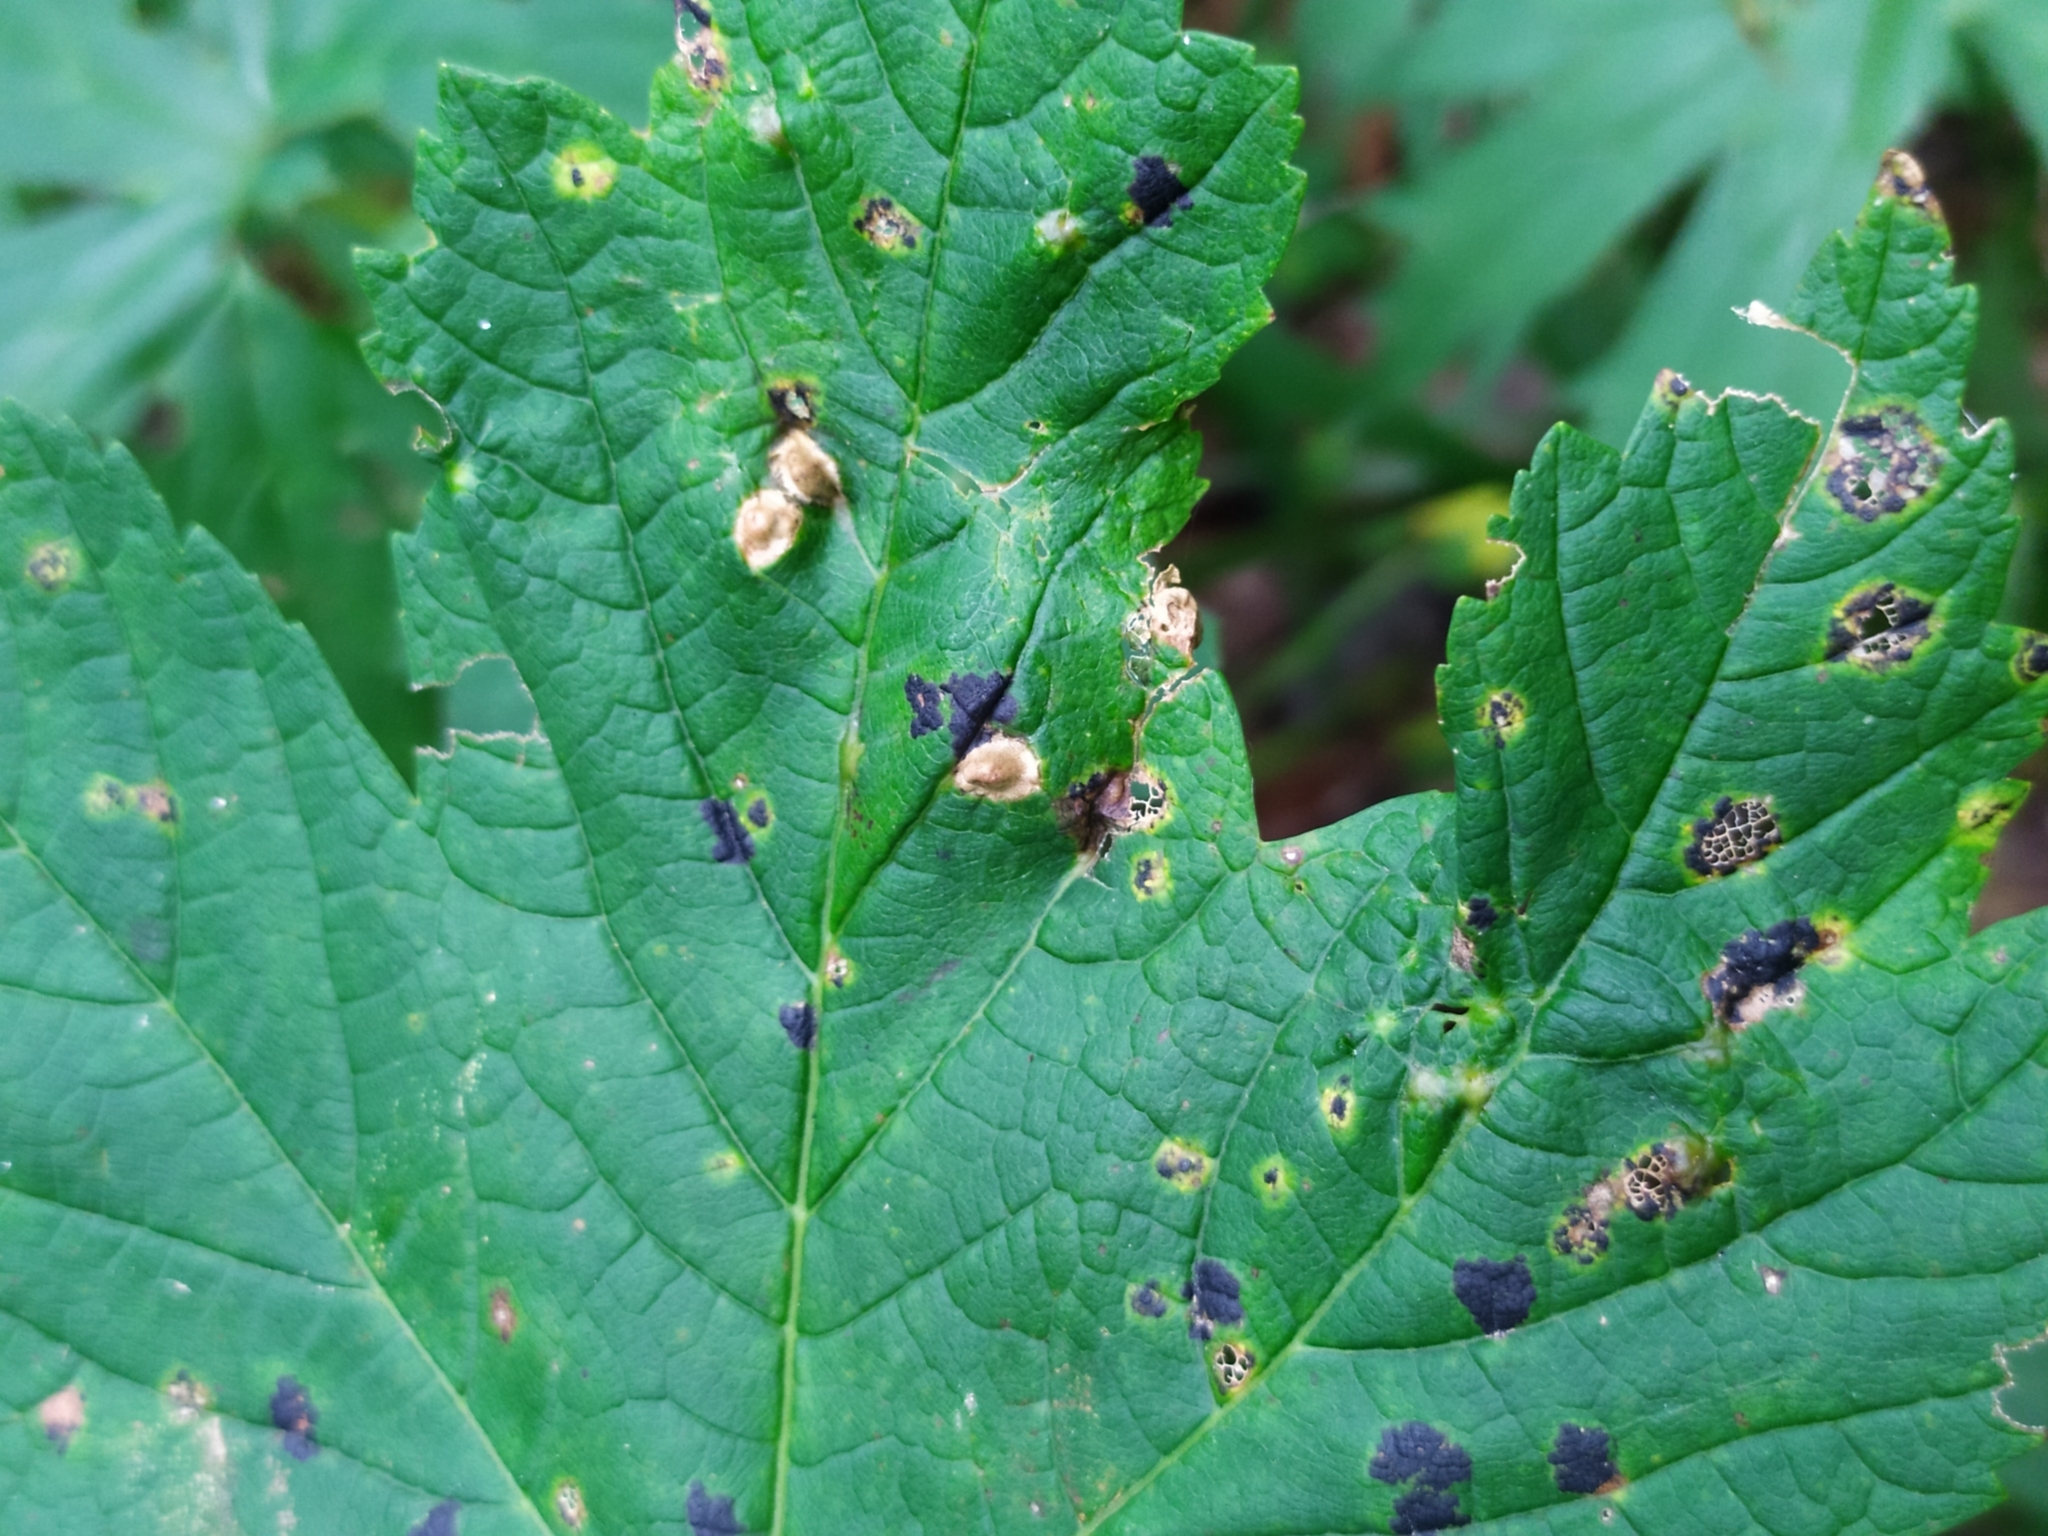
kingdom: Animalia
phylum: Arthropoda
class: Insecta
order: Hymenoptera
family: Cynipidae
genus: Pediaspis
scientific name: Pediaspis aceris
